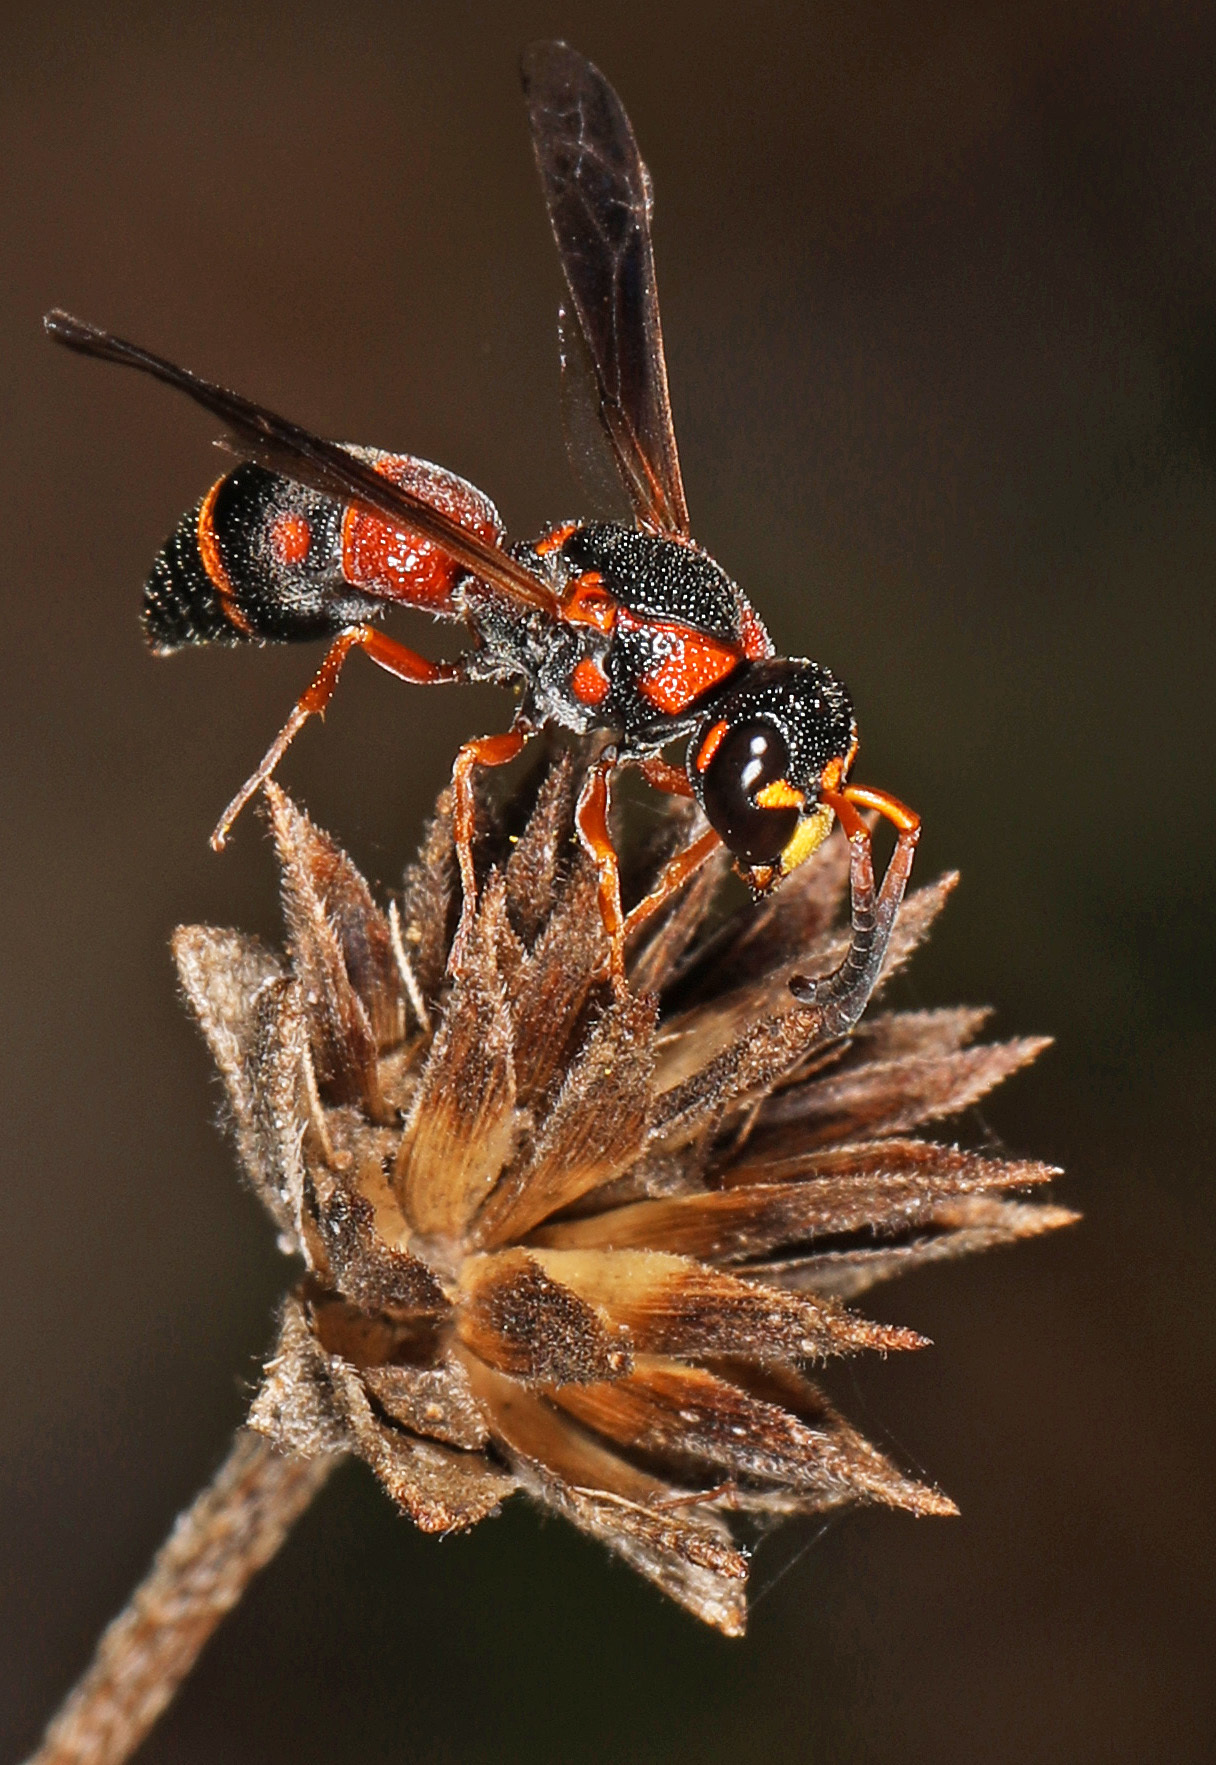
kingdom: Animalia
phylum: Arthropoda
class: Insecta
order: Hymenoptera
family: Eumenidae
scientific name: Eumenidae
